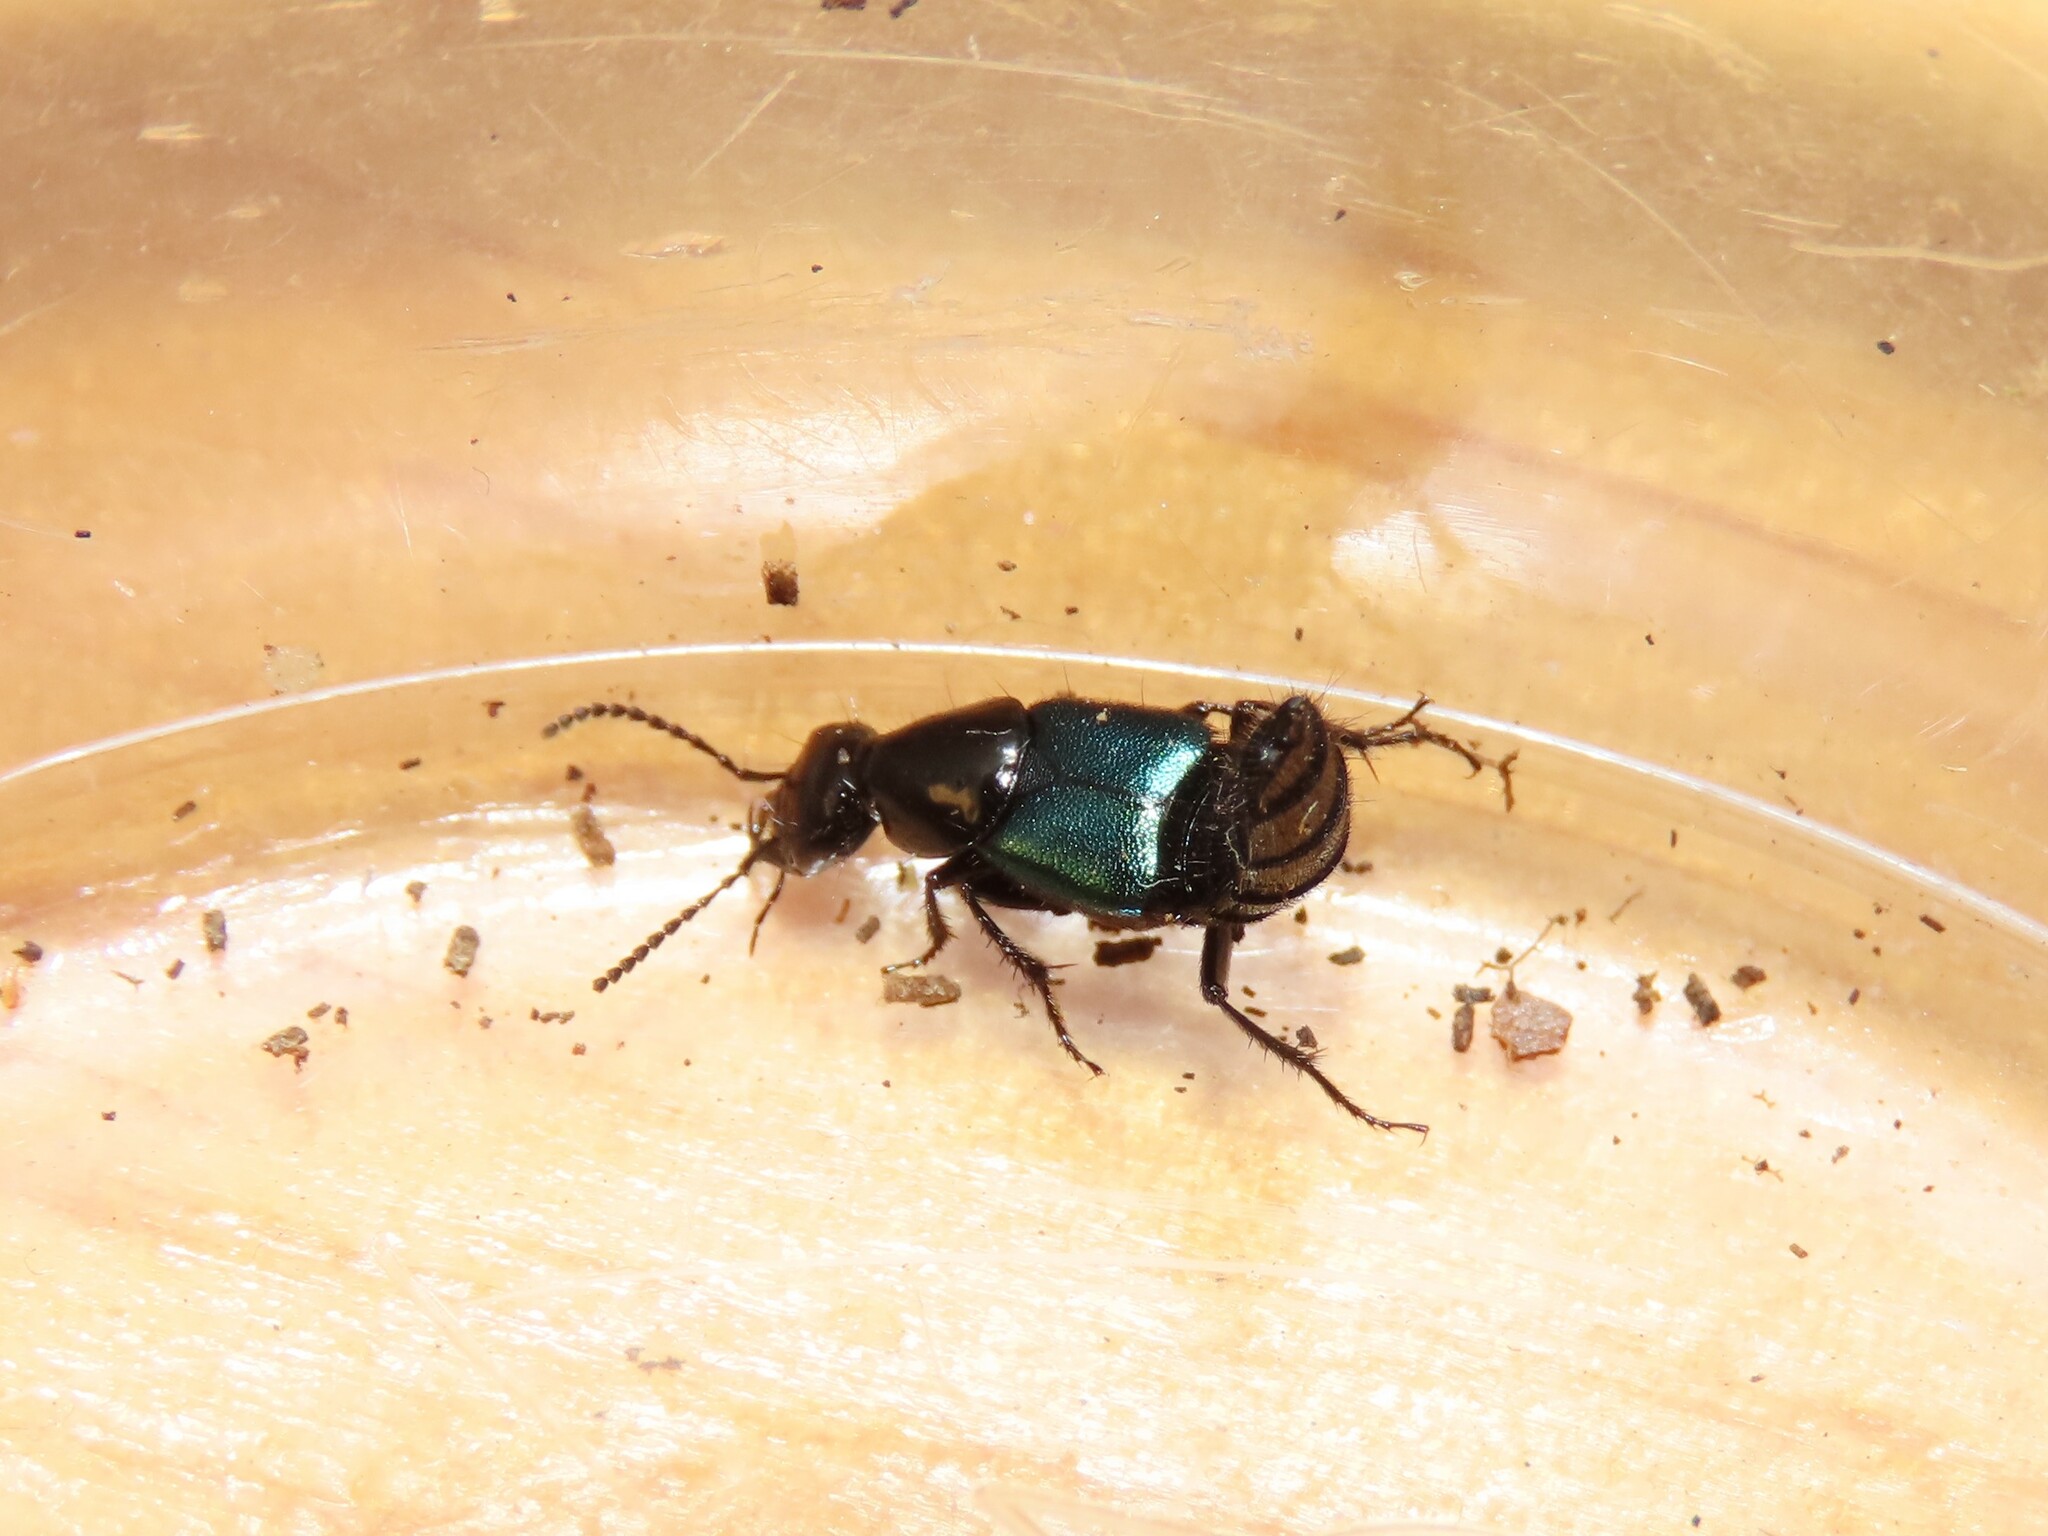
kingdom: Animalia
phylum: Arthropoda
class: Insecta
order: Coleoptera
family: Staphylinidae
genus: Philonthus
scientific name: Philonthus caeruleipennis
